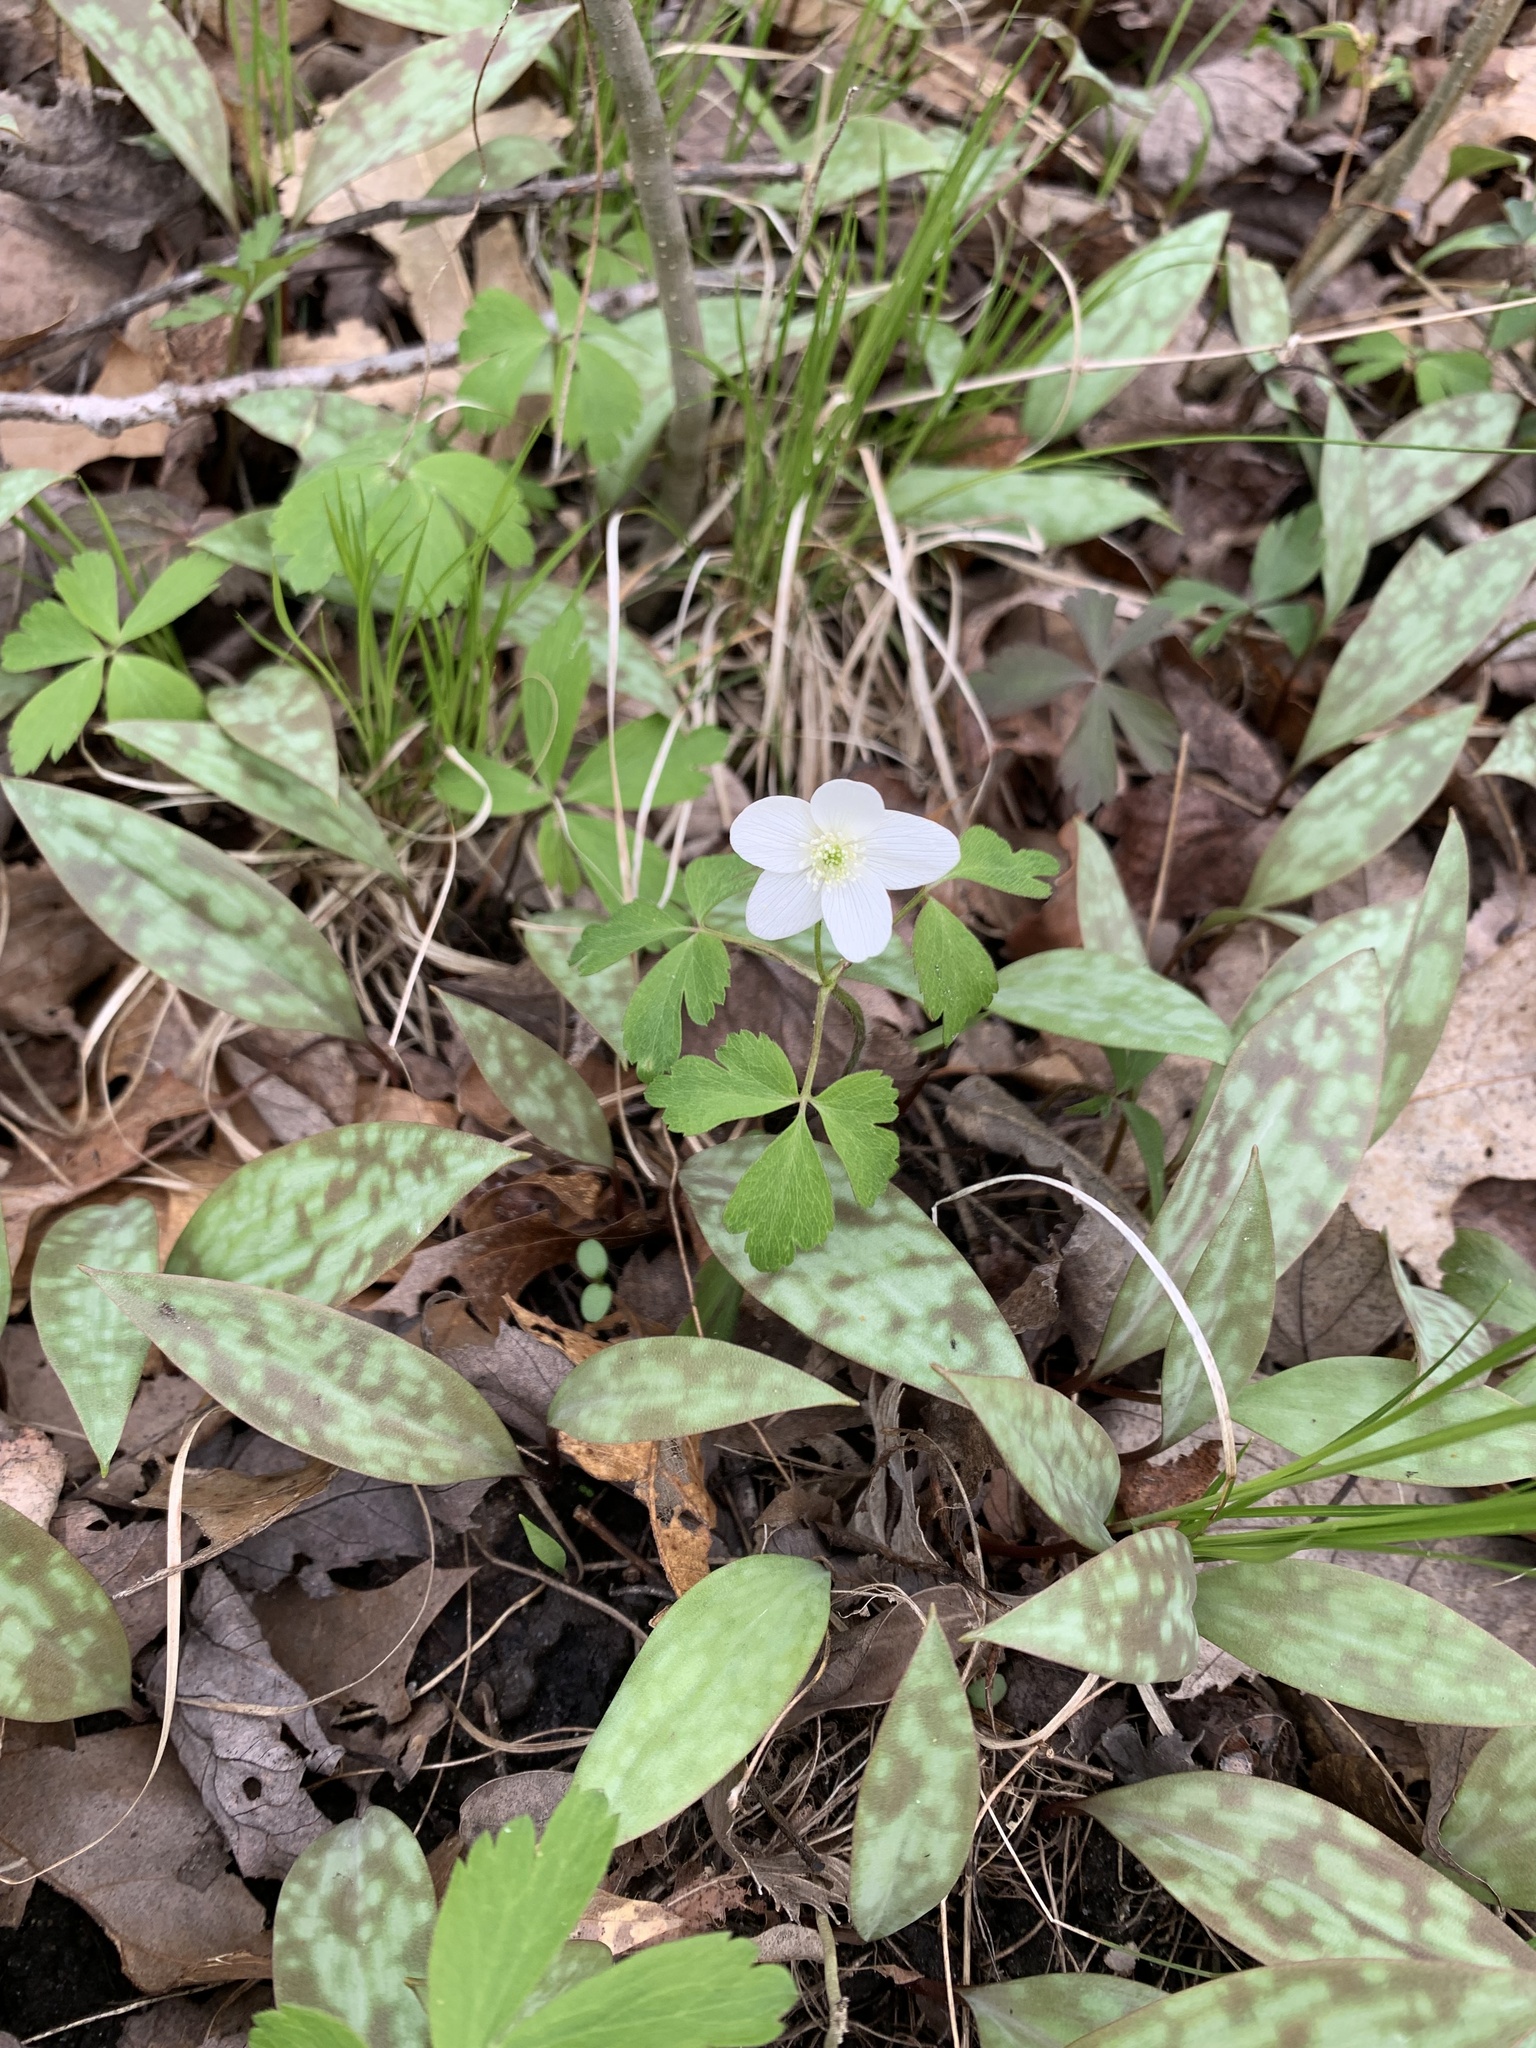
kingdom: Plantae
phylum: Tracheophyta
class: Magnoliopsida
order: Ranunculales
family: Ranunculaceae
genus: Anemone
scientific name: Anemone quinquefolia
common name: Wood anemone
